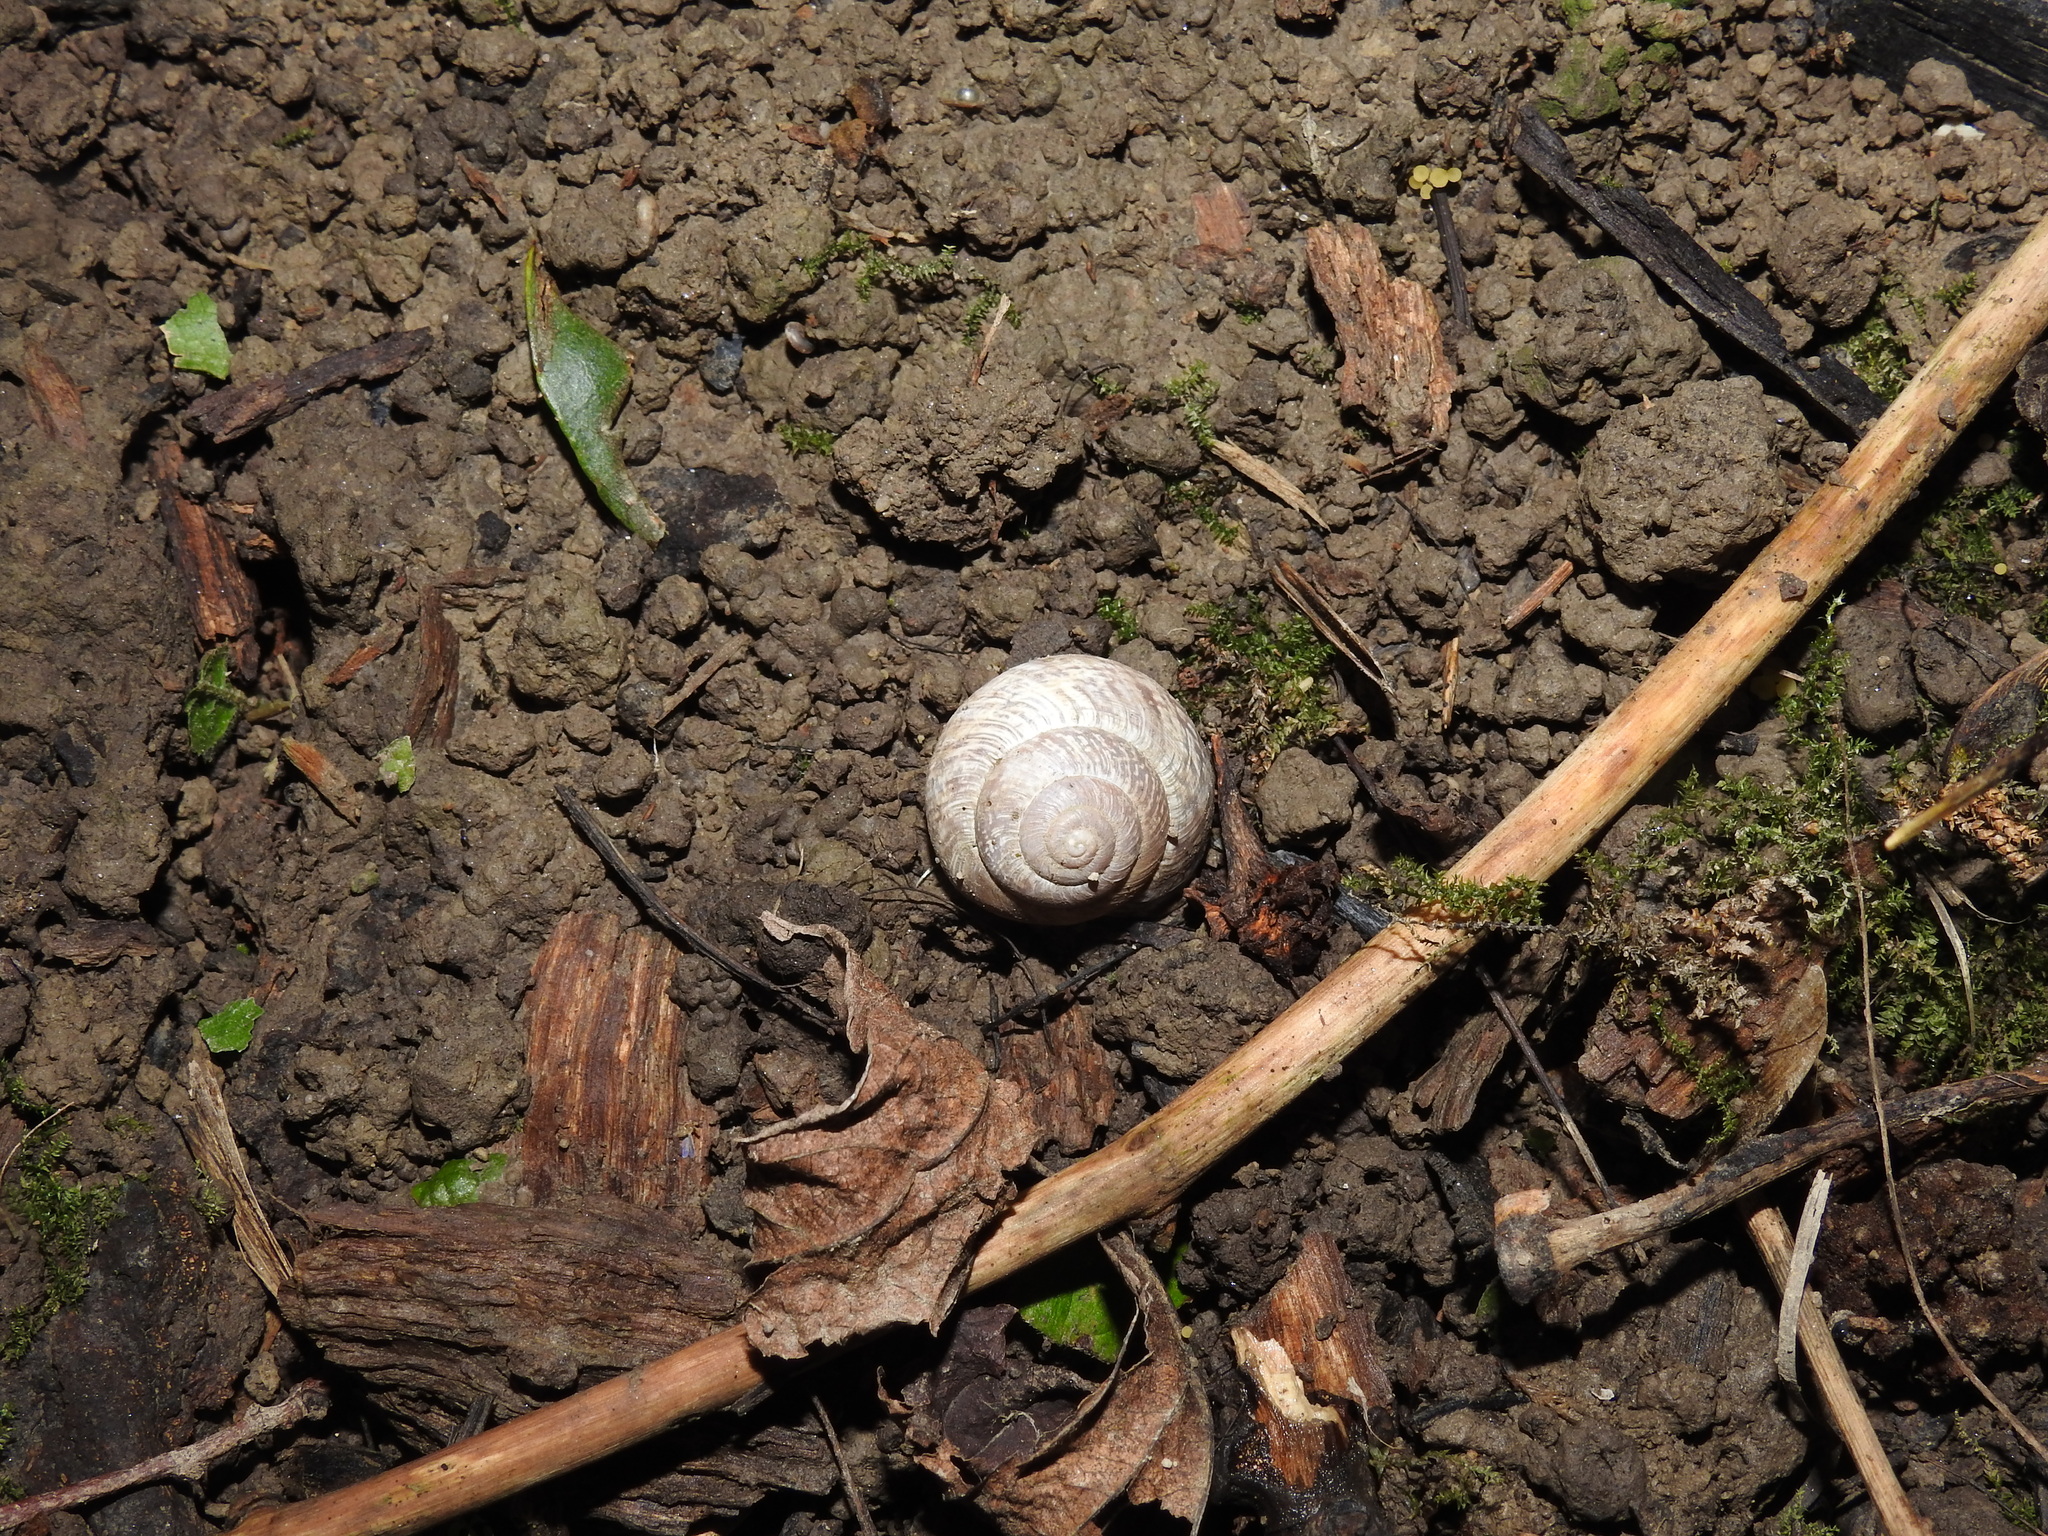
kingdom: Animalia
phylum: Mollusca
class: Gastropoda
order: Stylommatophora
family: Helicidae
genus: Arianta
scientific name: Arianta arbustorum
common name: Copse snail
